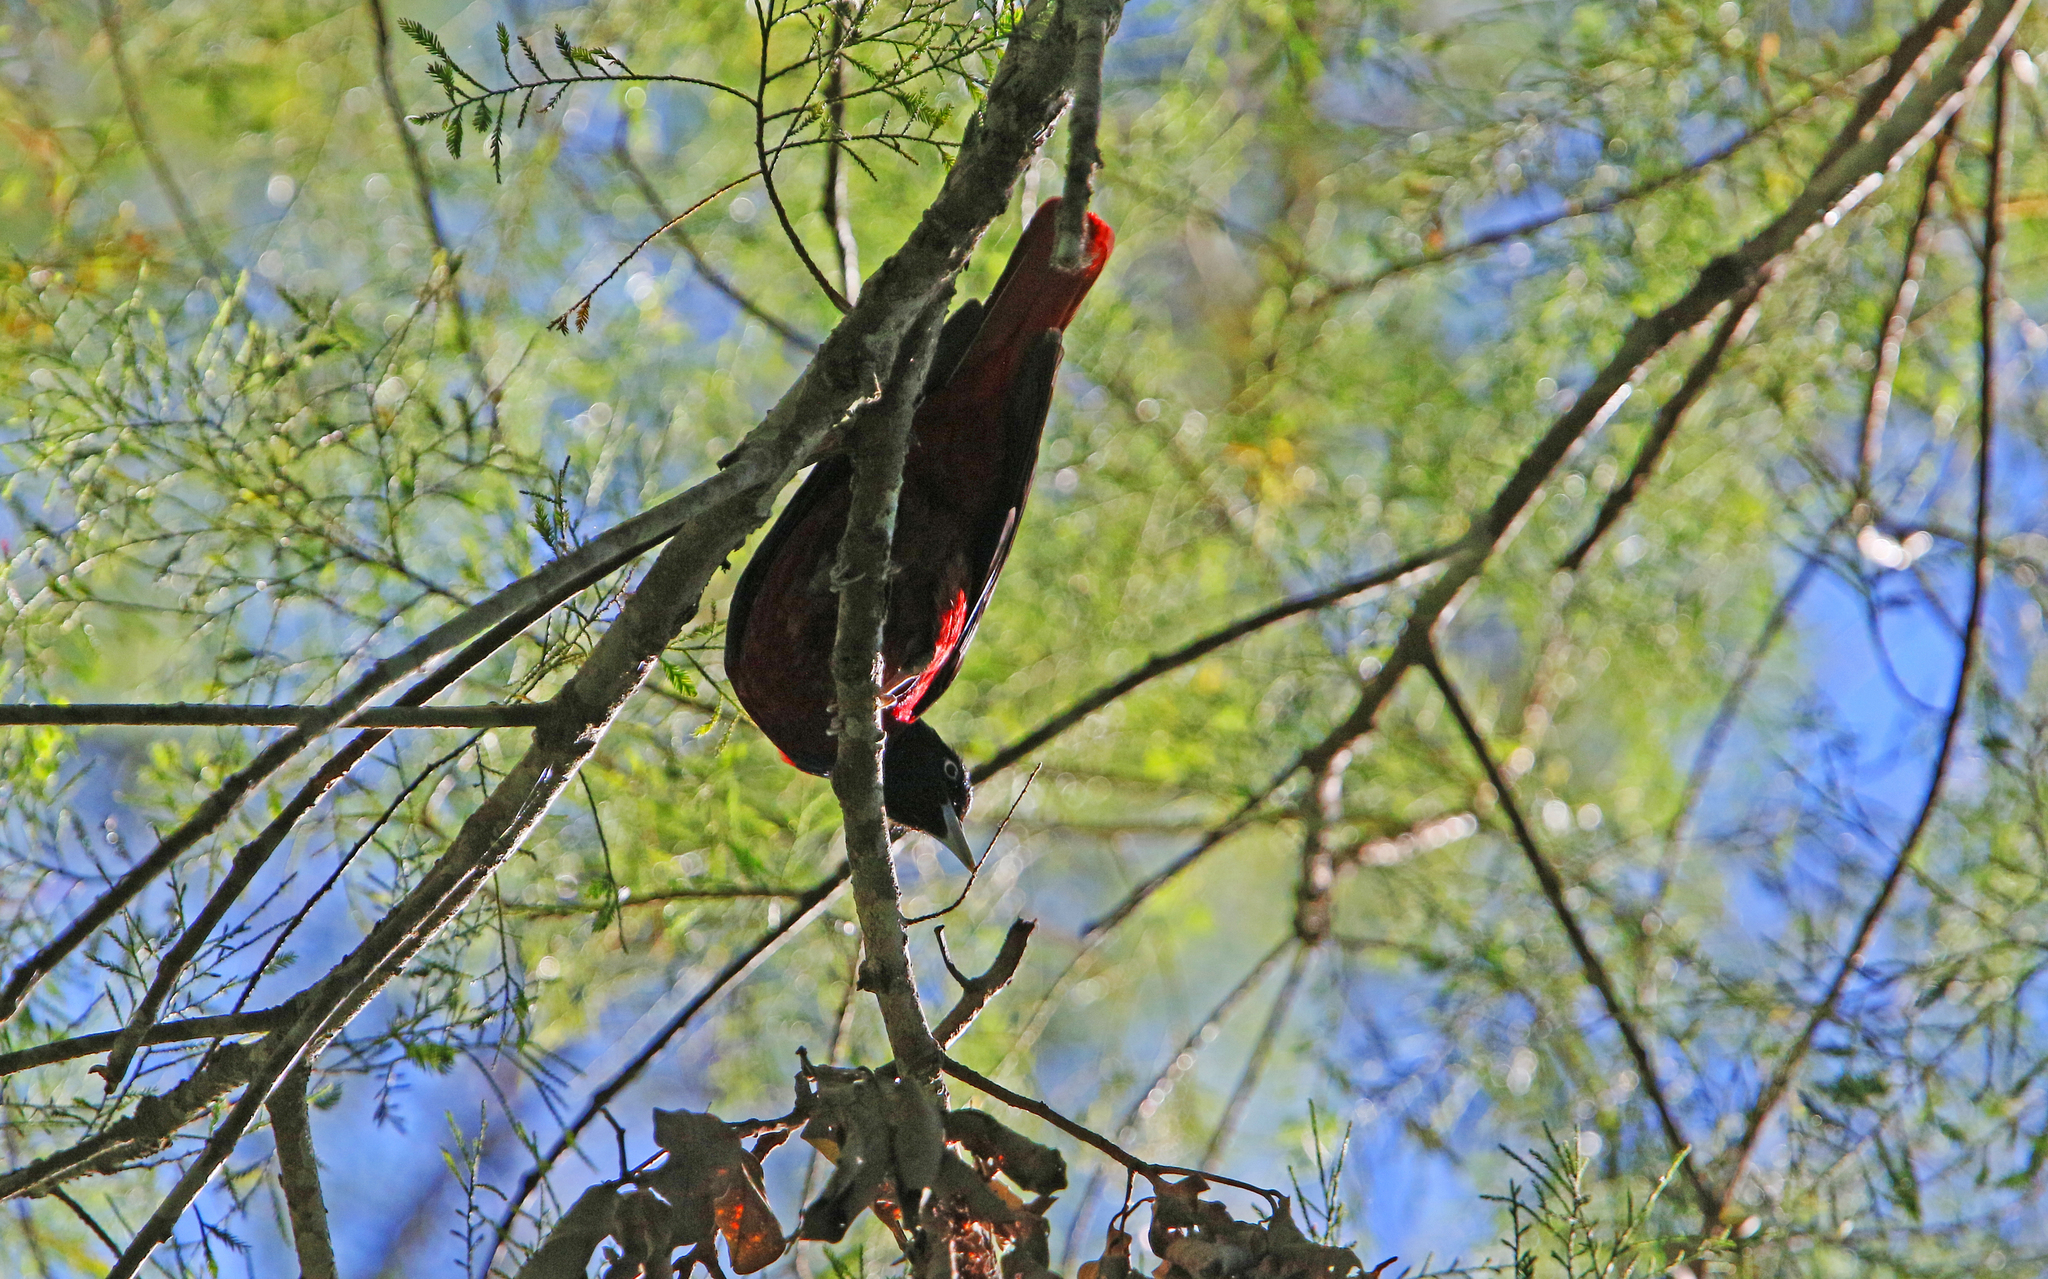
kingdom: Animalia
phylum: Chordata
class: Aves
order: Passeriformes
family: Oriolidae
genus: Oriolus
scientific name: Oriolus traillii
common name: Maroon oriole
